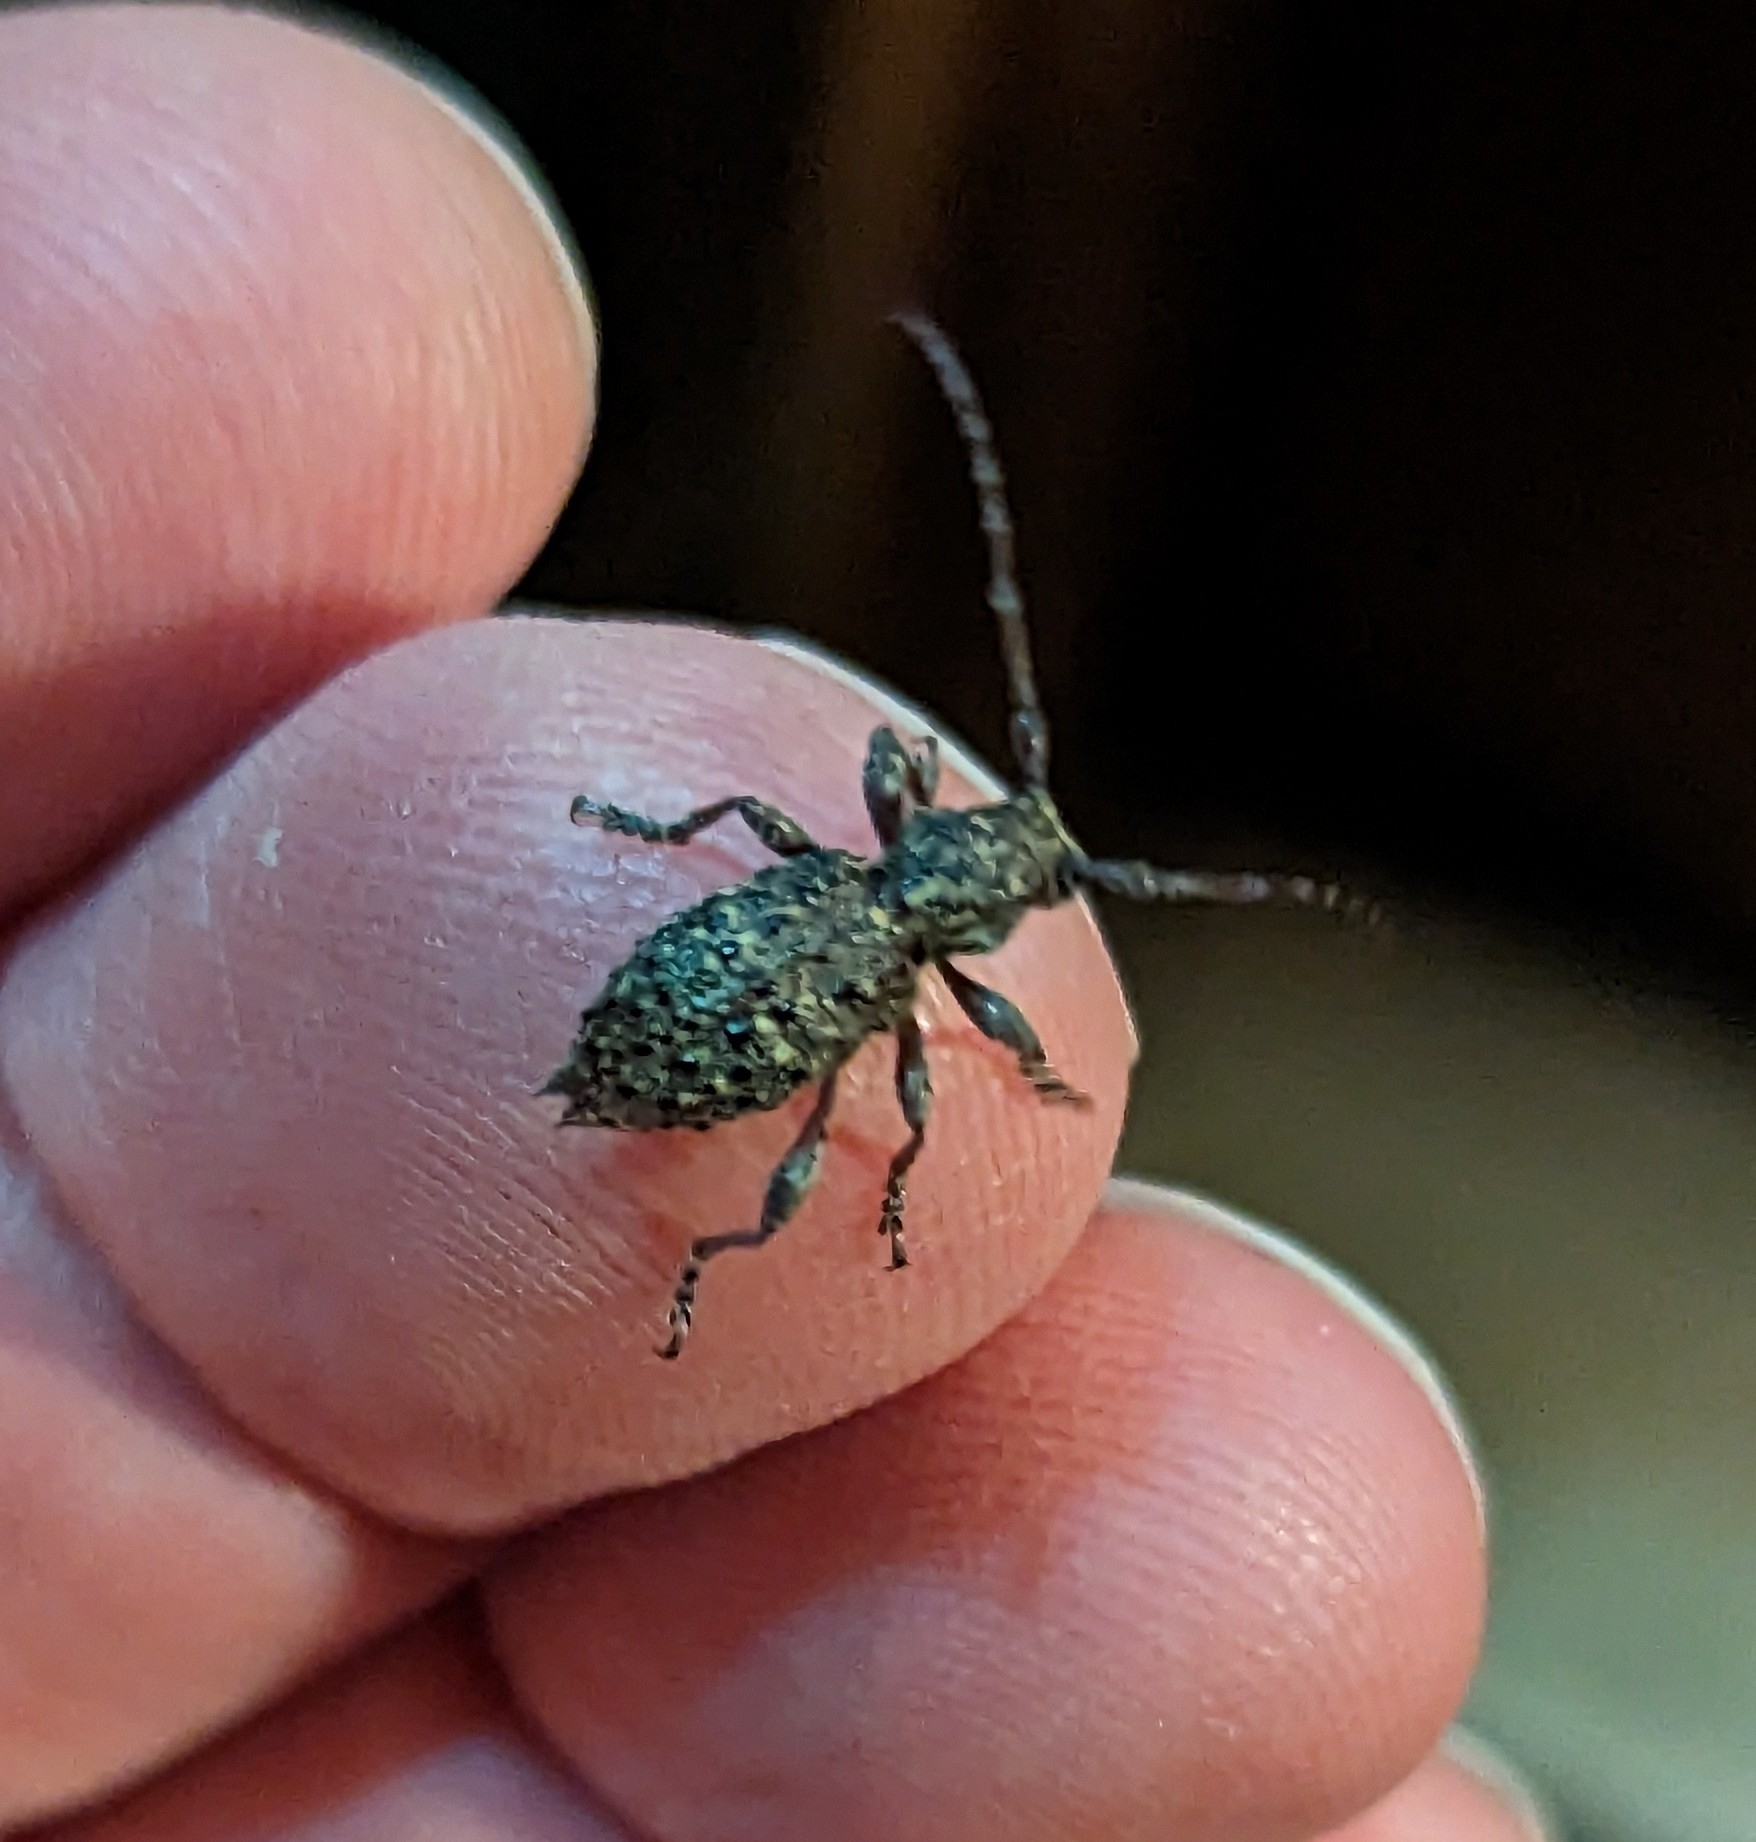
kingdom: Animalia
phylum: Arthropoda
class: Insecta
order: Coleoptera
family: Cerambycidae
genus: Plectrura
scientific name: Plectrura spinicauda
